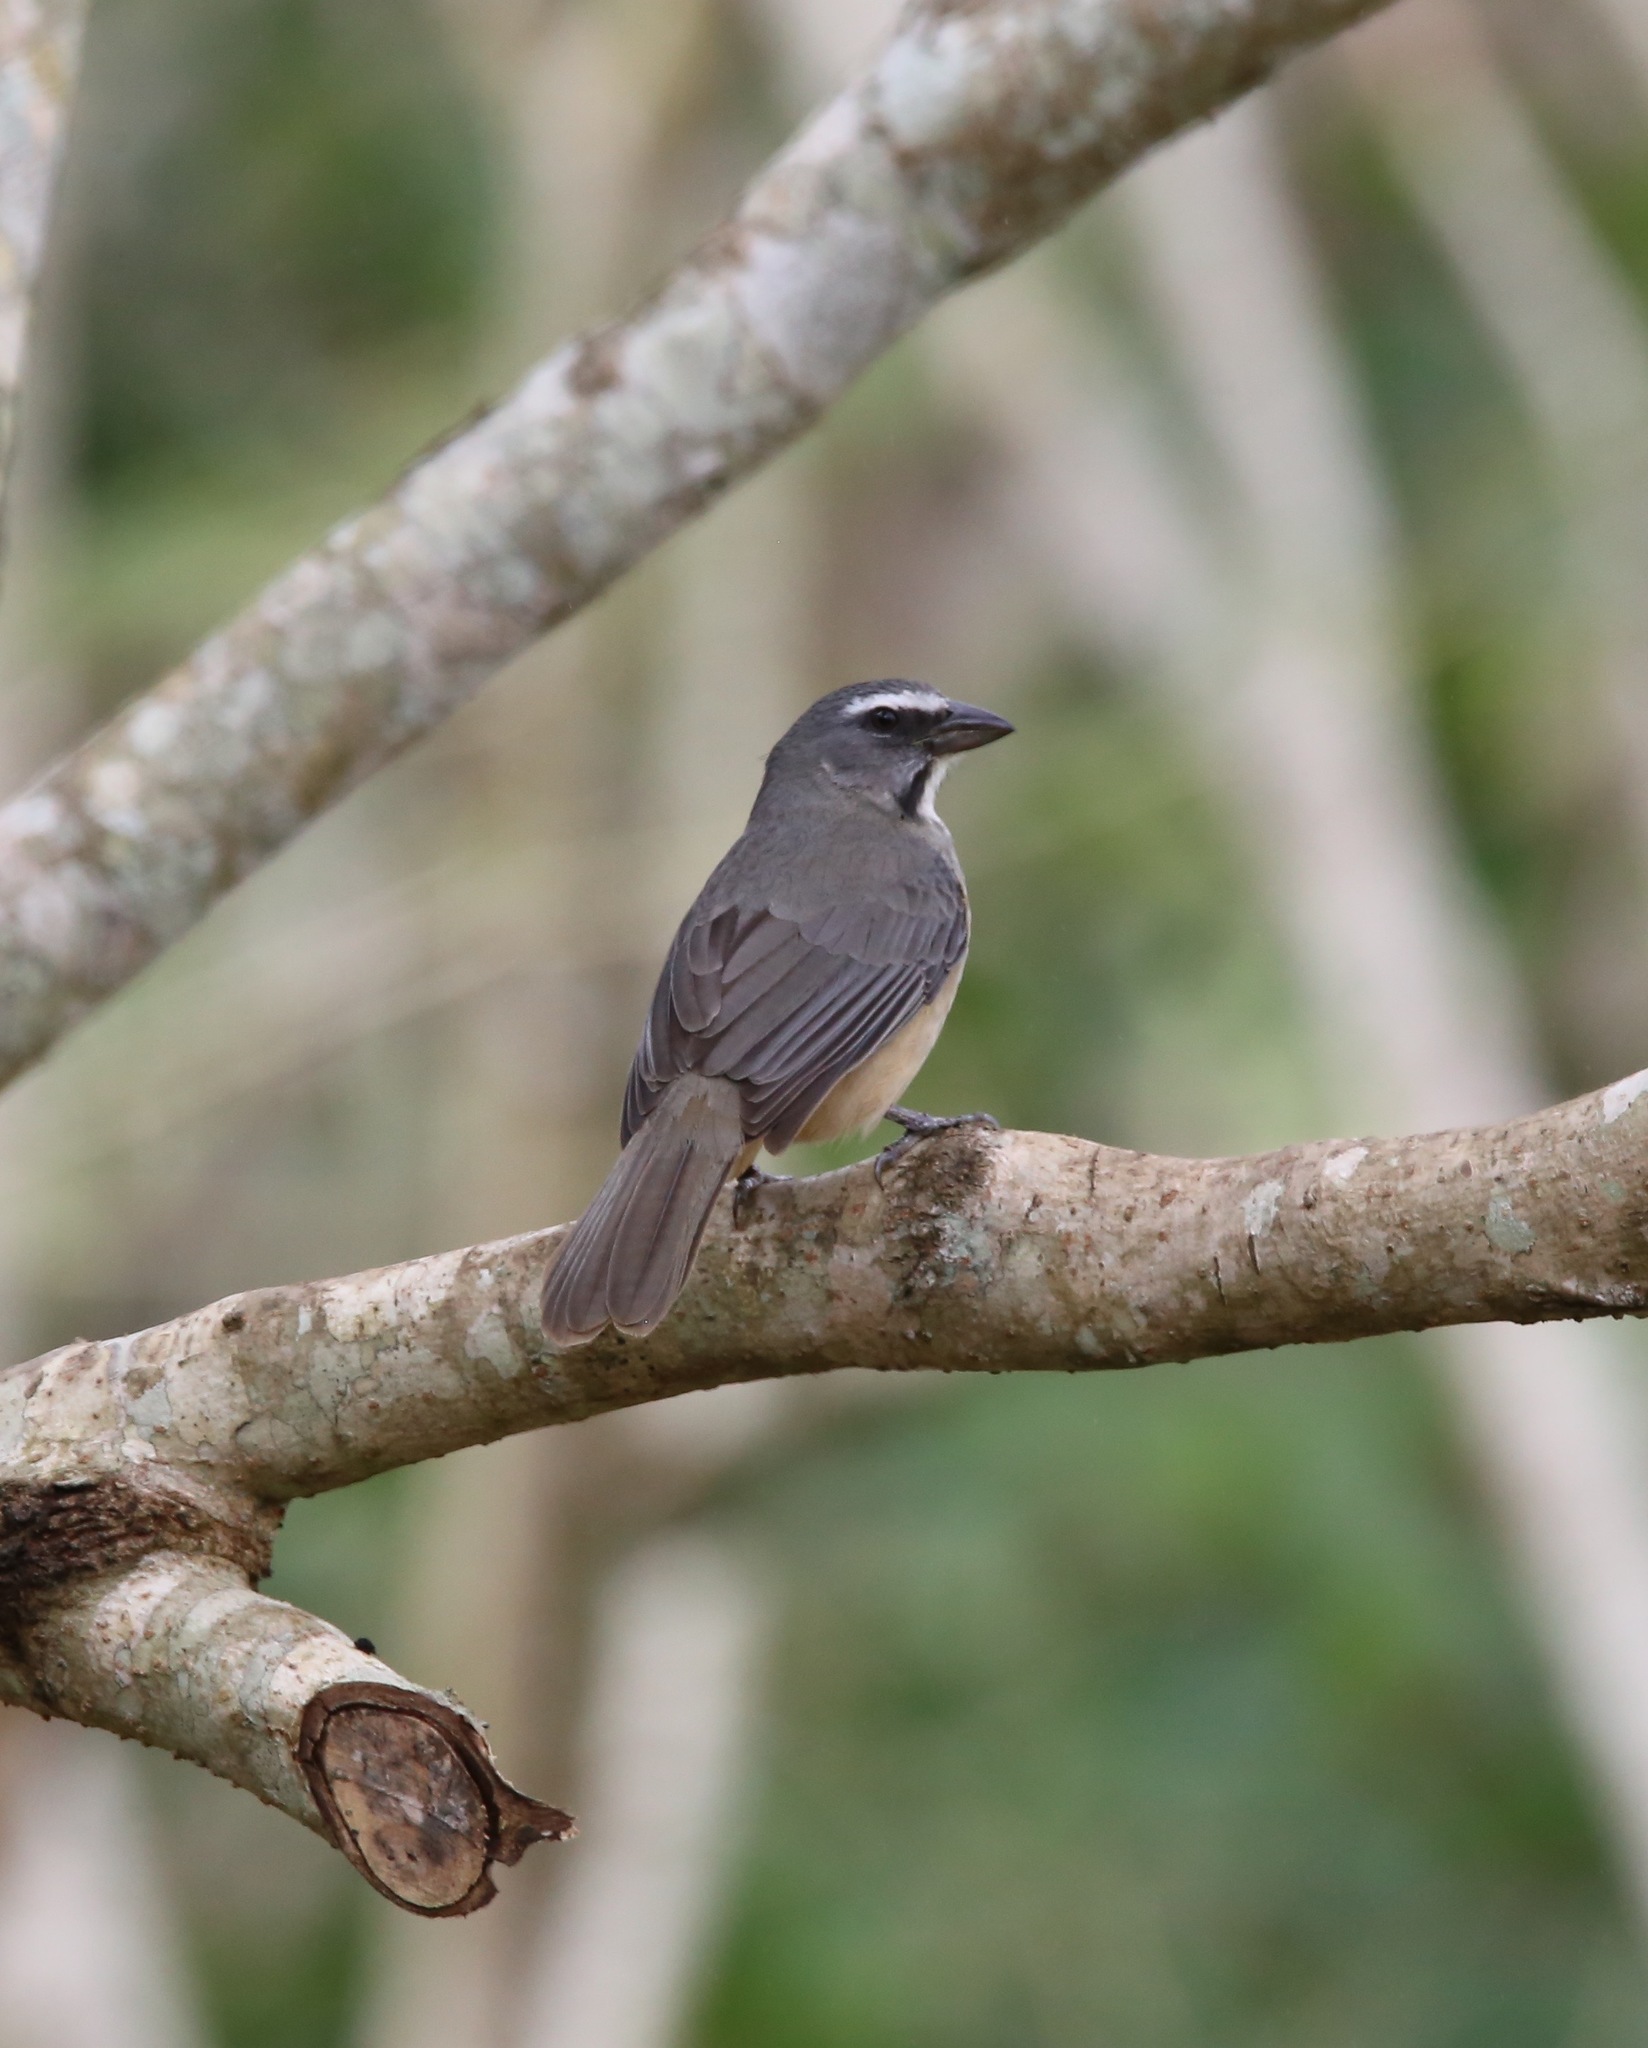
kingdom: Animalia
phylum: Chordata
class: Aves
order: Passeriformes
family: Thraupidae
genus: Saltator
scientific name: Saltator grandis
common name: Cinnamon-bellied saltator
